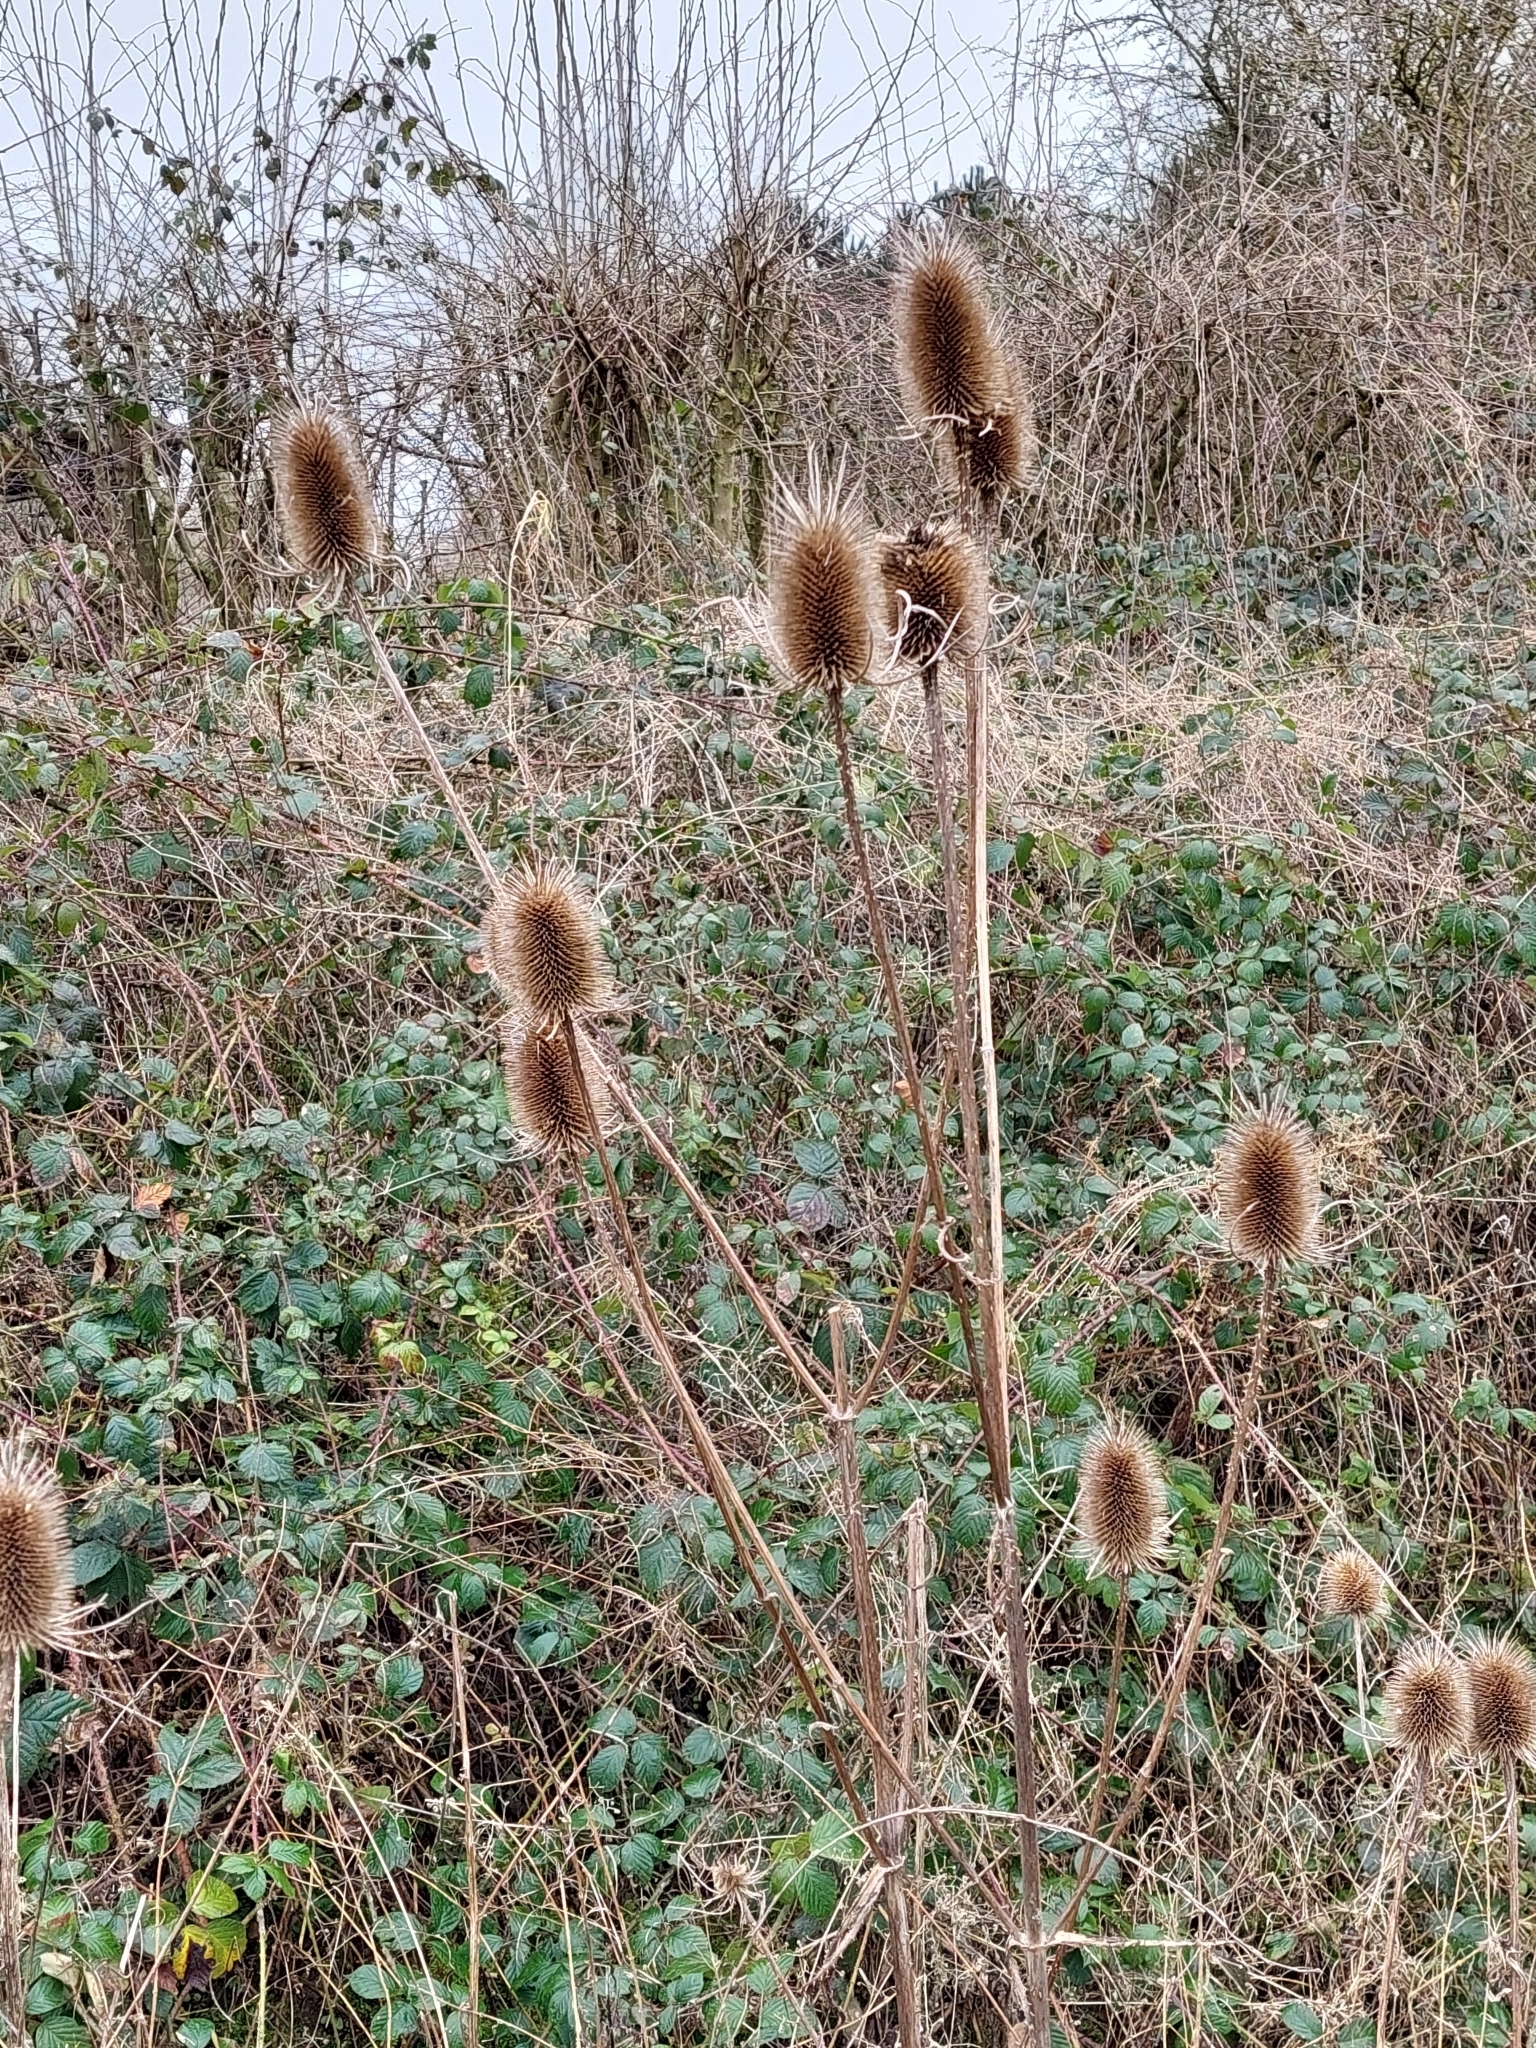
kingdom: Plantae
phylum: Tracheophyta
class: Magnoliopsida
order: Dipsacales
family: Caprifoliaceae
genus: Dipsacus
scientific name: Dipsacus fullonum
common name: Teasel
